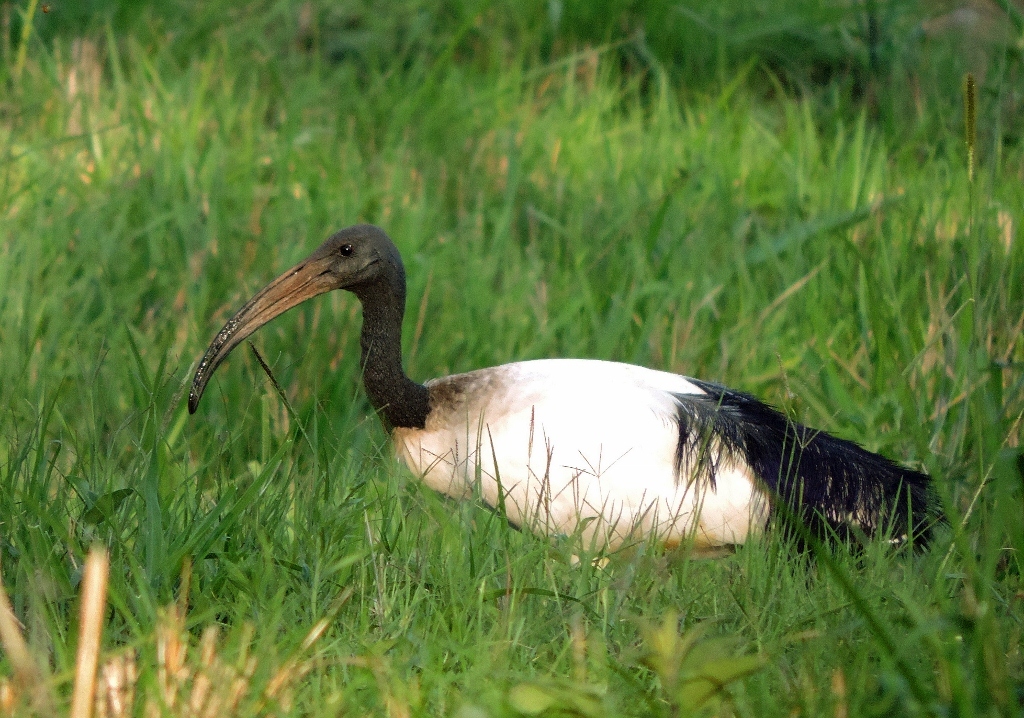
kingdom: Animalia
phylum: Chordata
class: Aves
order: Pelecaniformes
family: Threskiornithidae
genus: Threskiornis
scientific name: Threskiornis aethiopicus
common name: Sacred ibis
